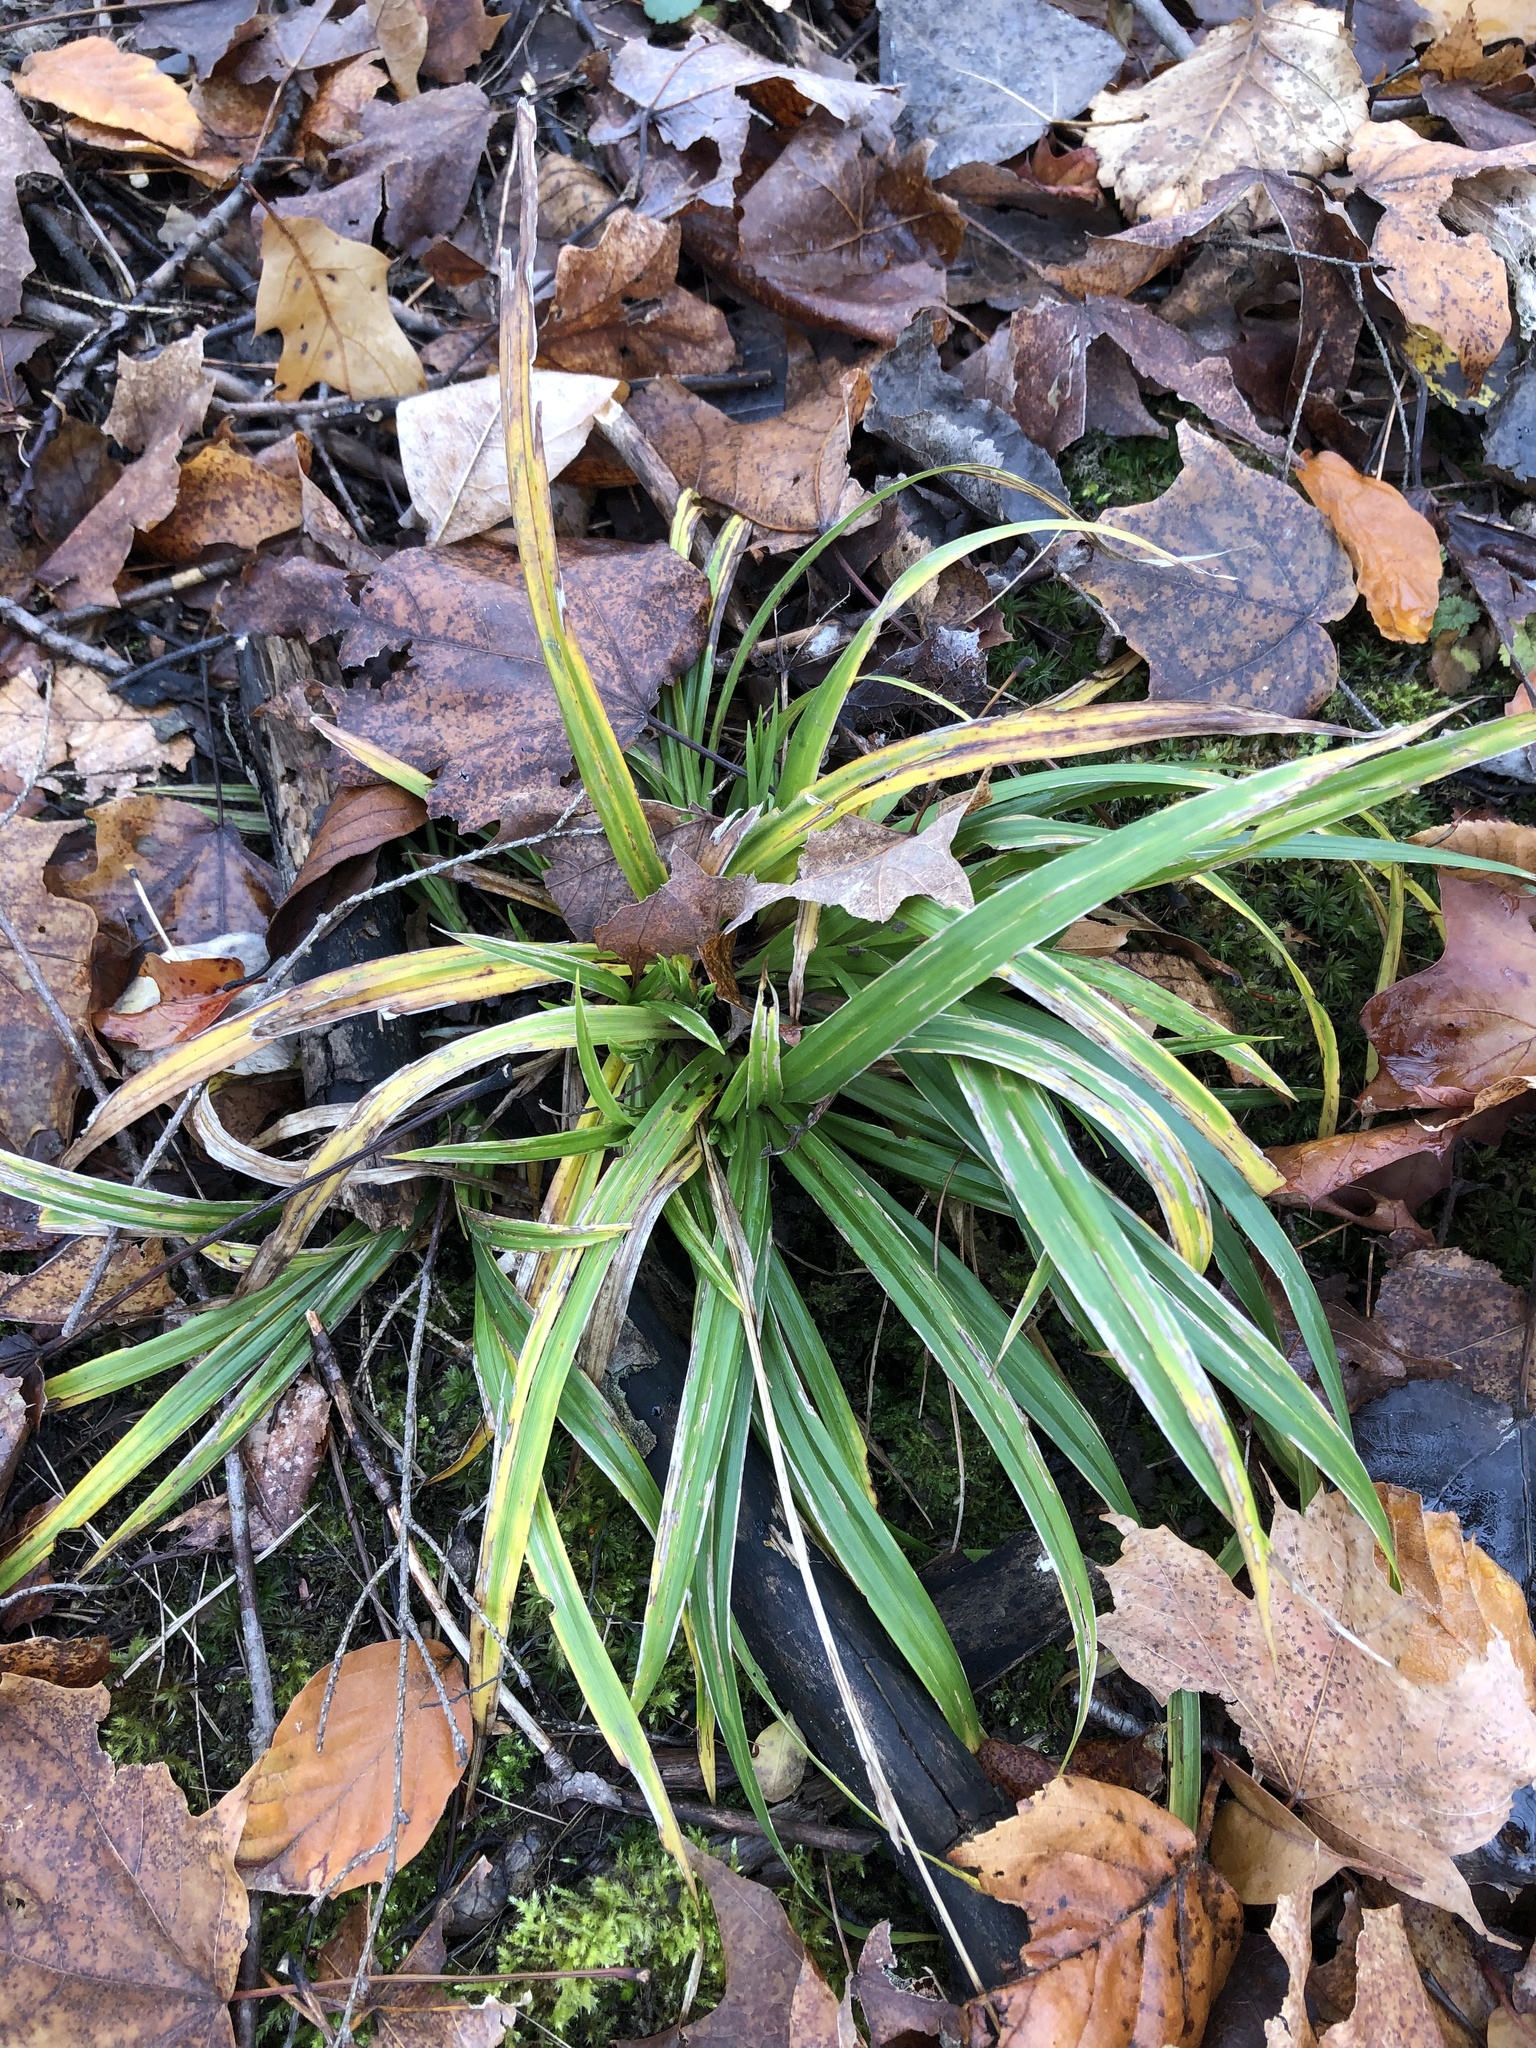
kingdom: Plantae
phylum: Tracheophyta
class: Liliopsida
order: Poales
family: Cyperaceae
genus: Carex
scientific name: Carex
